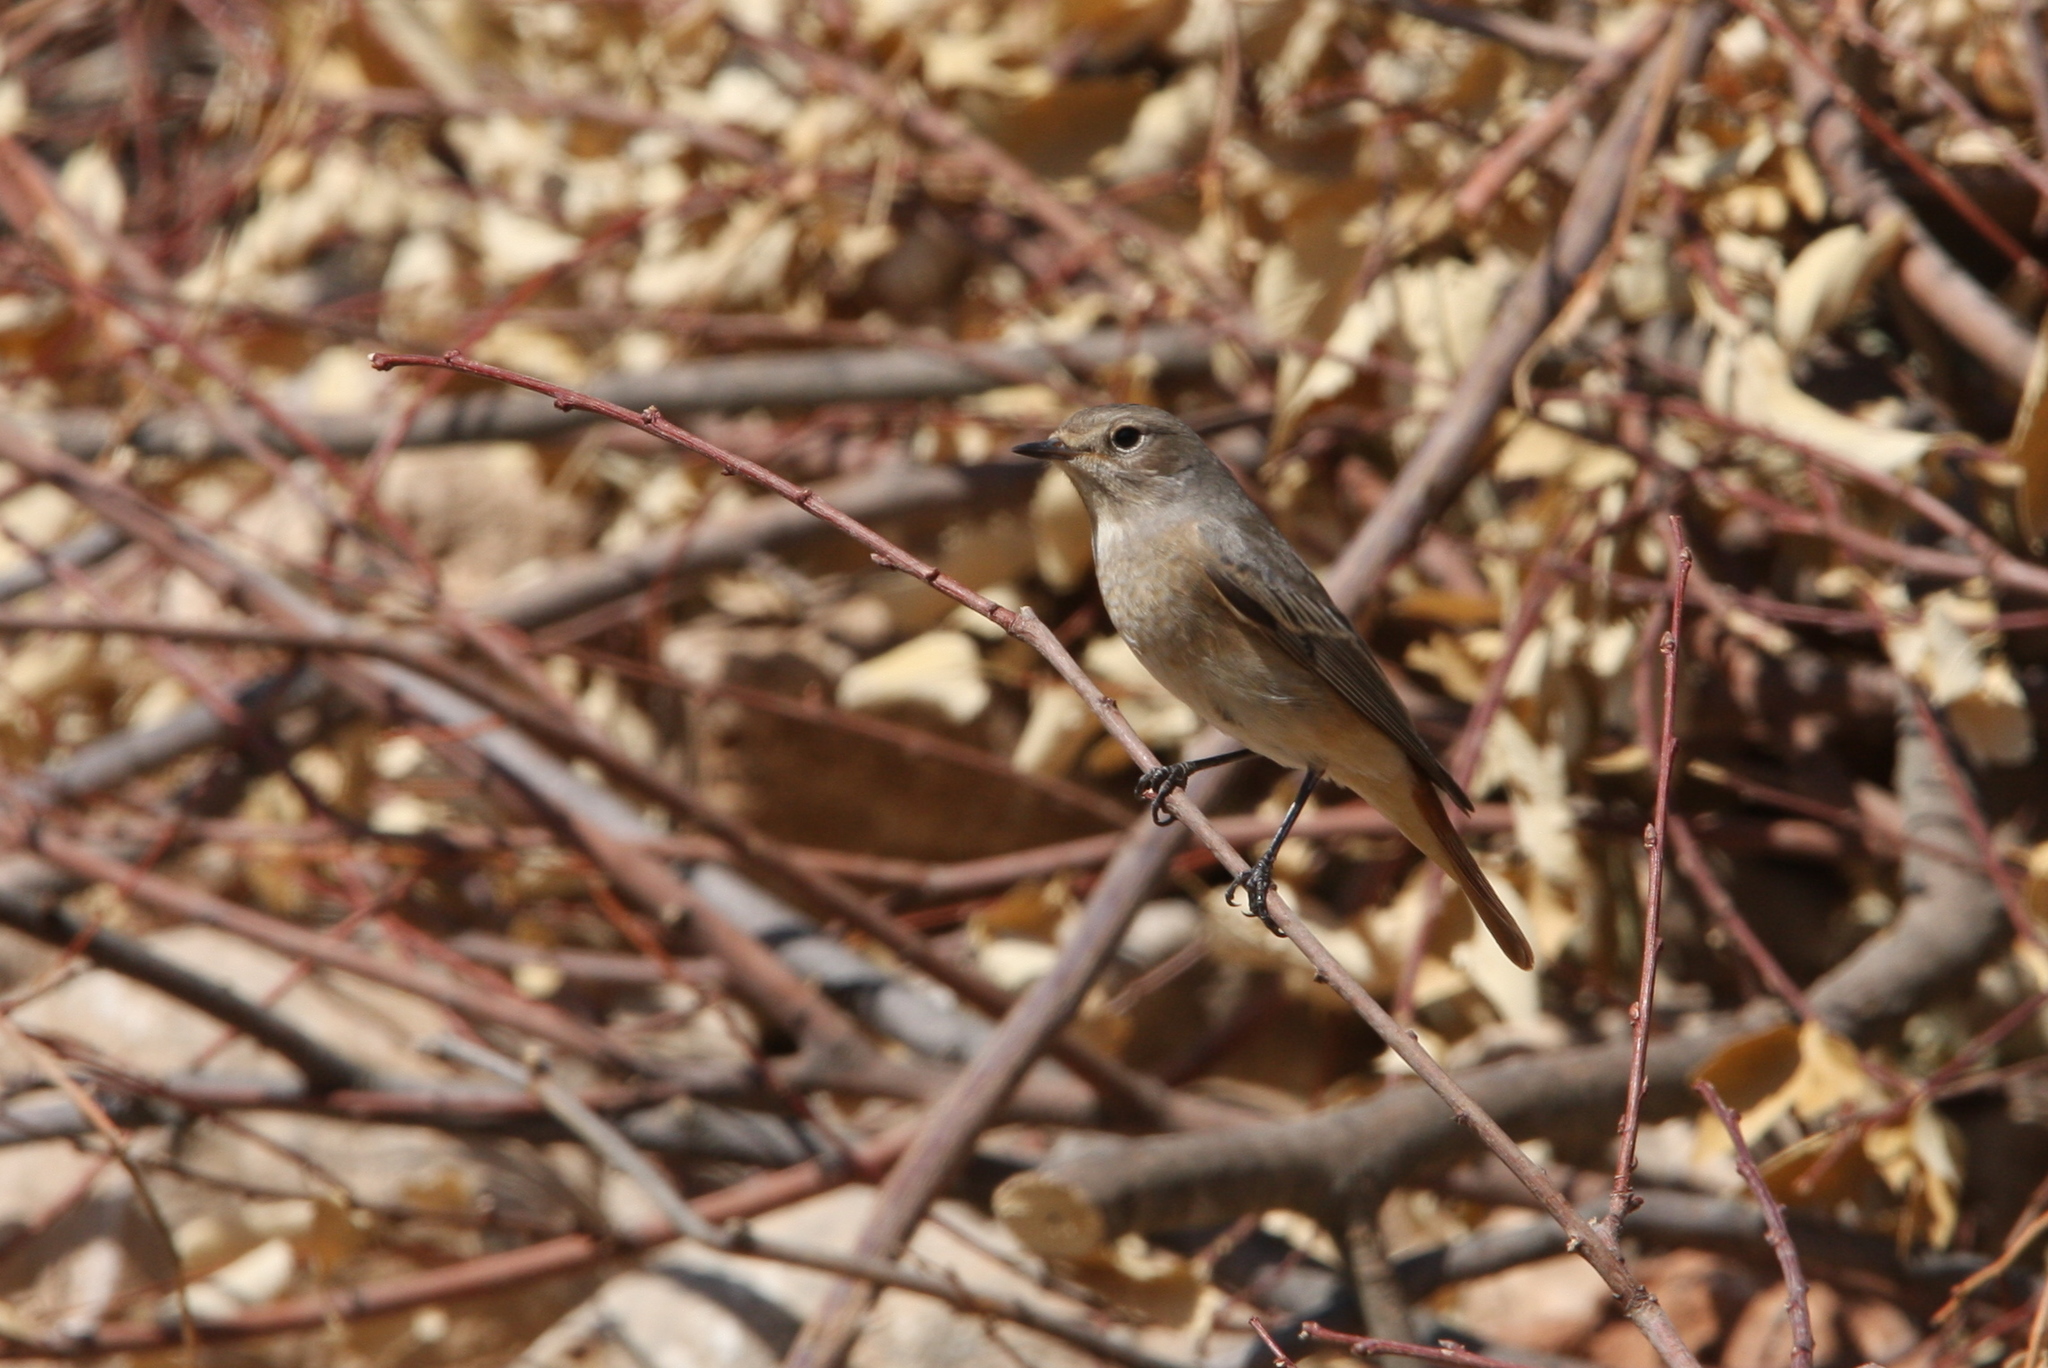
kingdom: Animalia
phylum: Chordata
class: Aves
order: Passeriformes
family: Muscicapidae
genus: Phoenicurus
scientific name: Phoenicurus phoenicurus
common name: Common redstart
